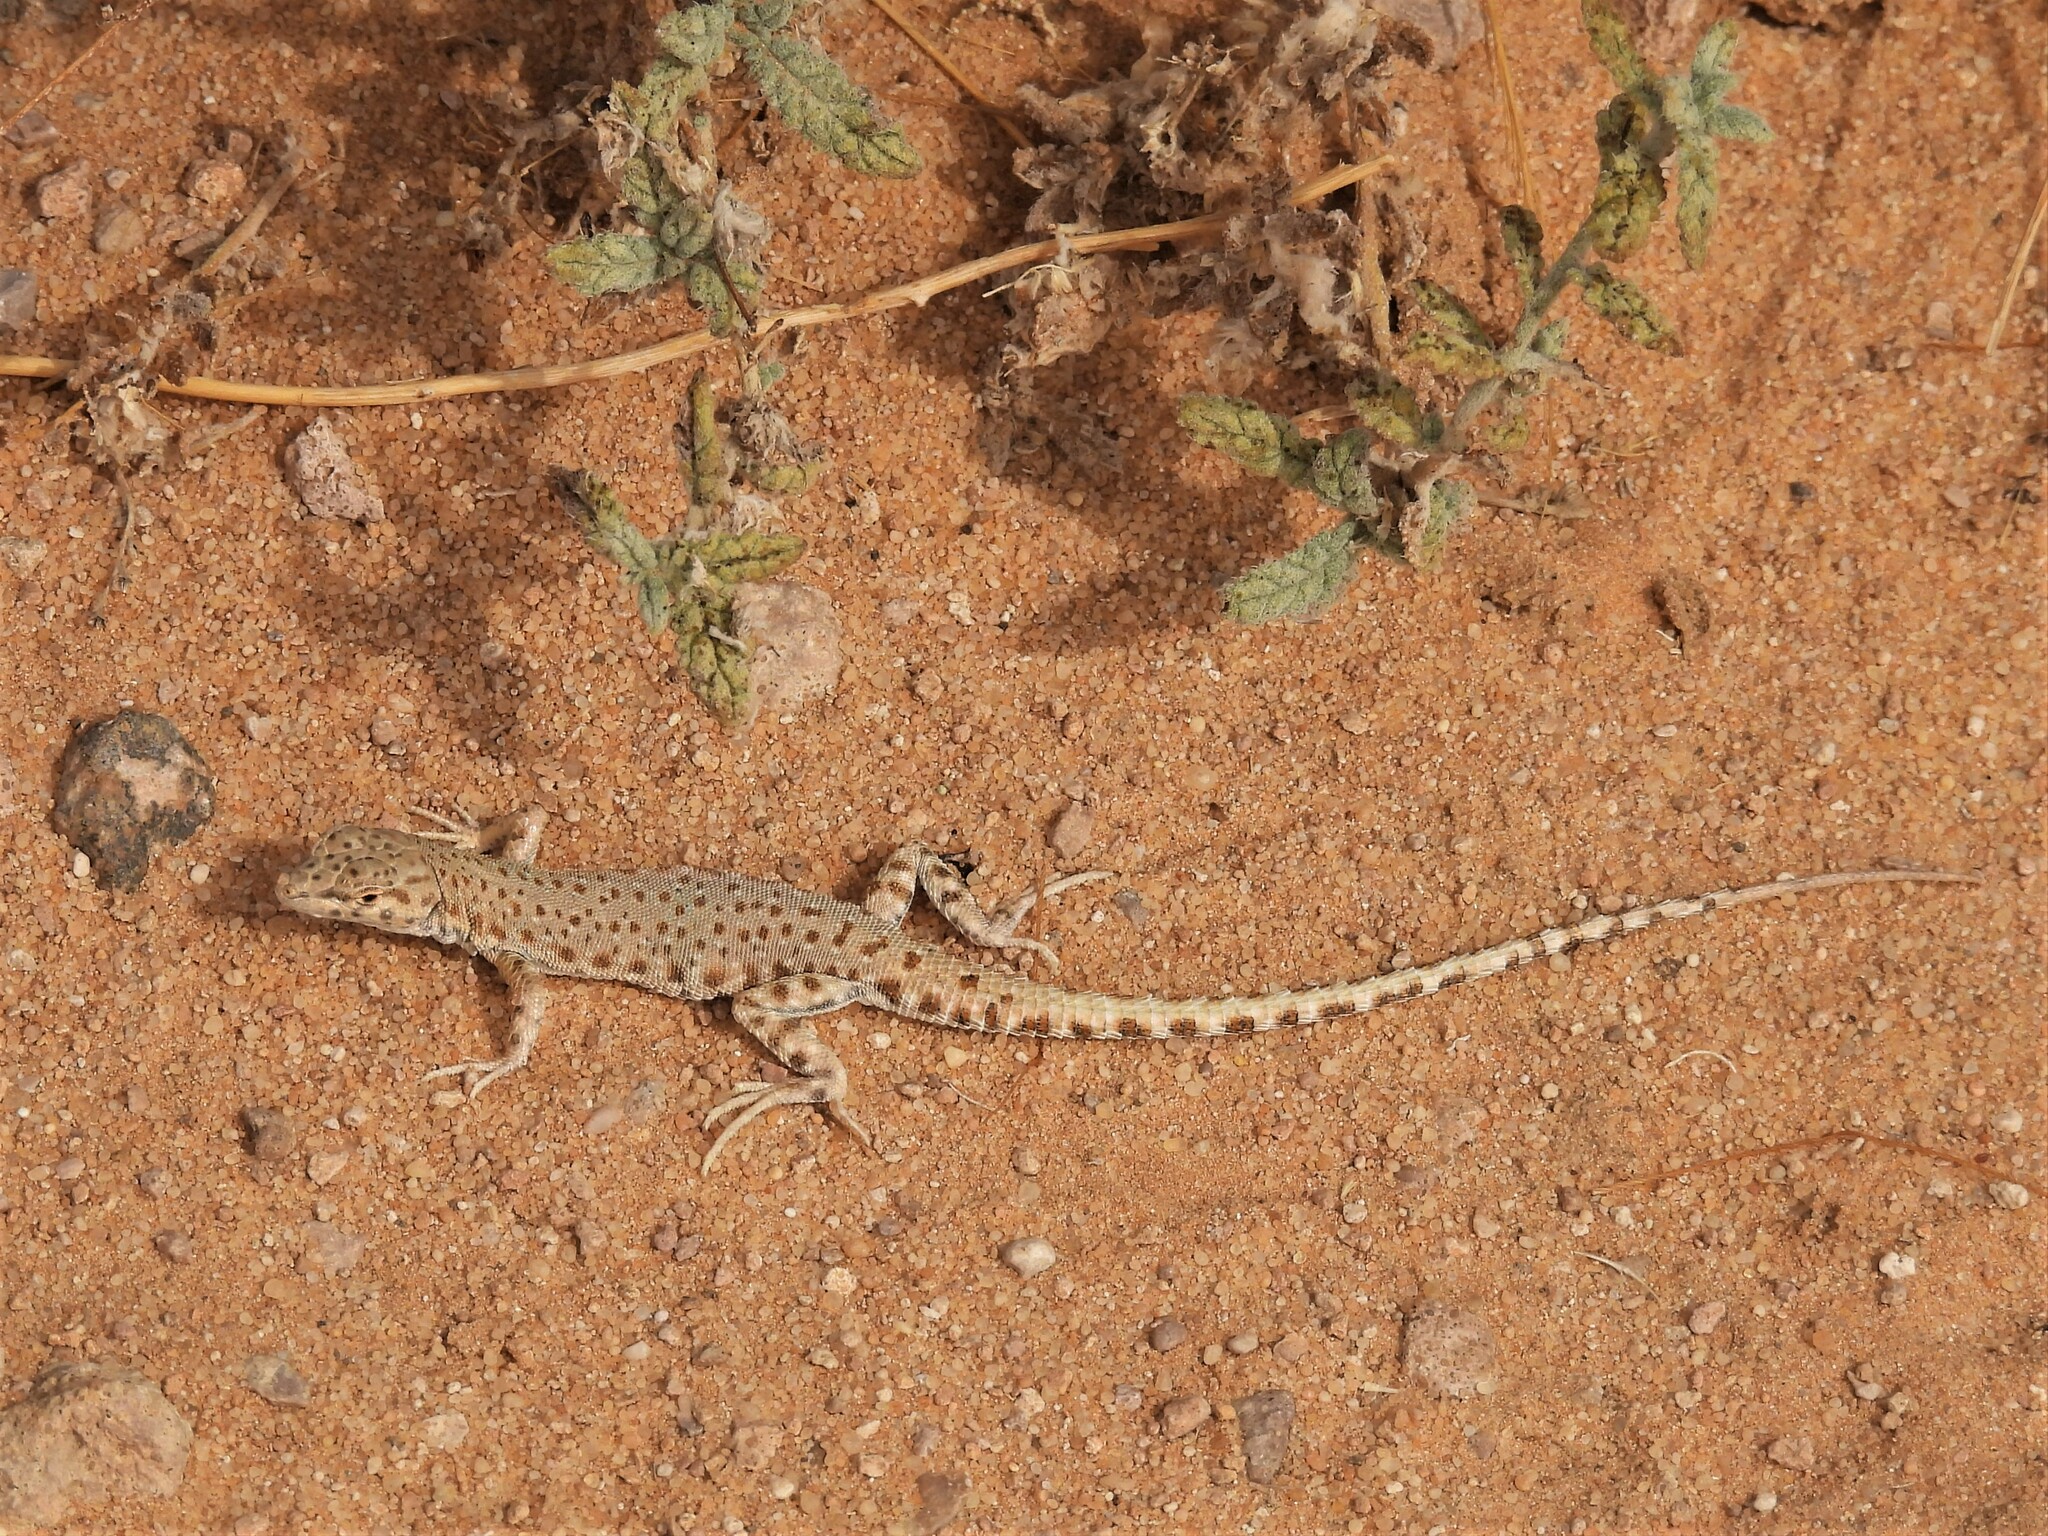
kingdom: Animalia
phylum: Chordata
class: Squamata
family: Lacertidae
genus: Mesalina
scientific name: Mesalina brevirostris
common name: Blanford's short-nosed desert lizard
